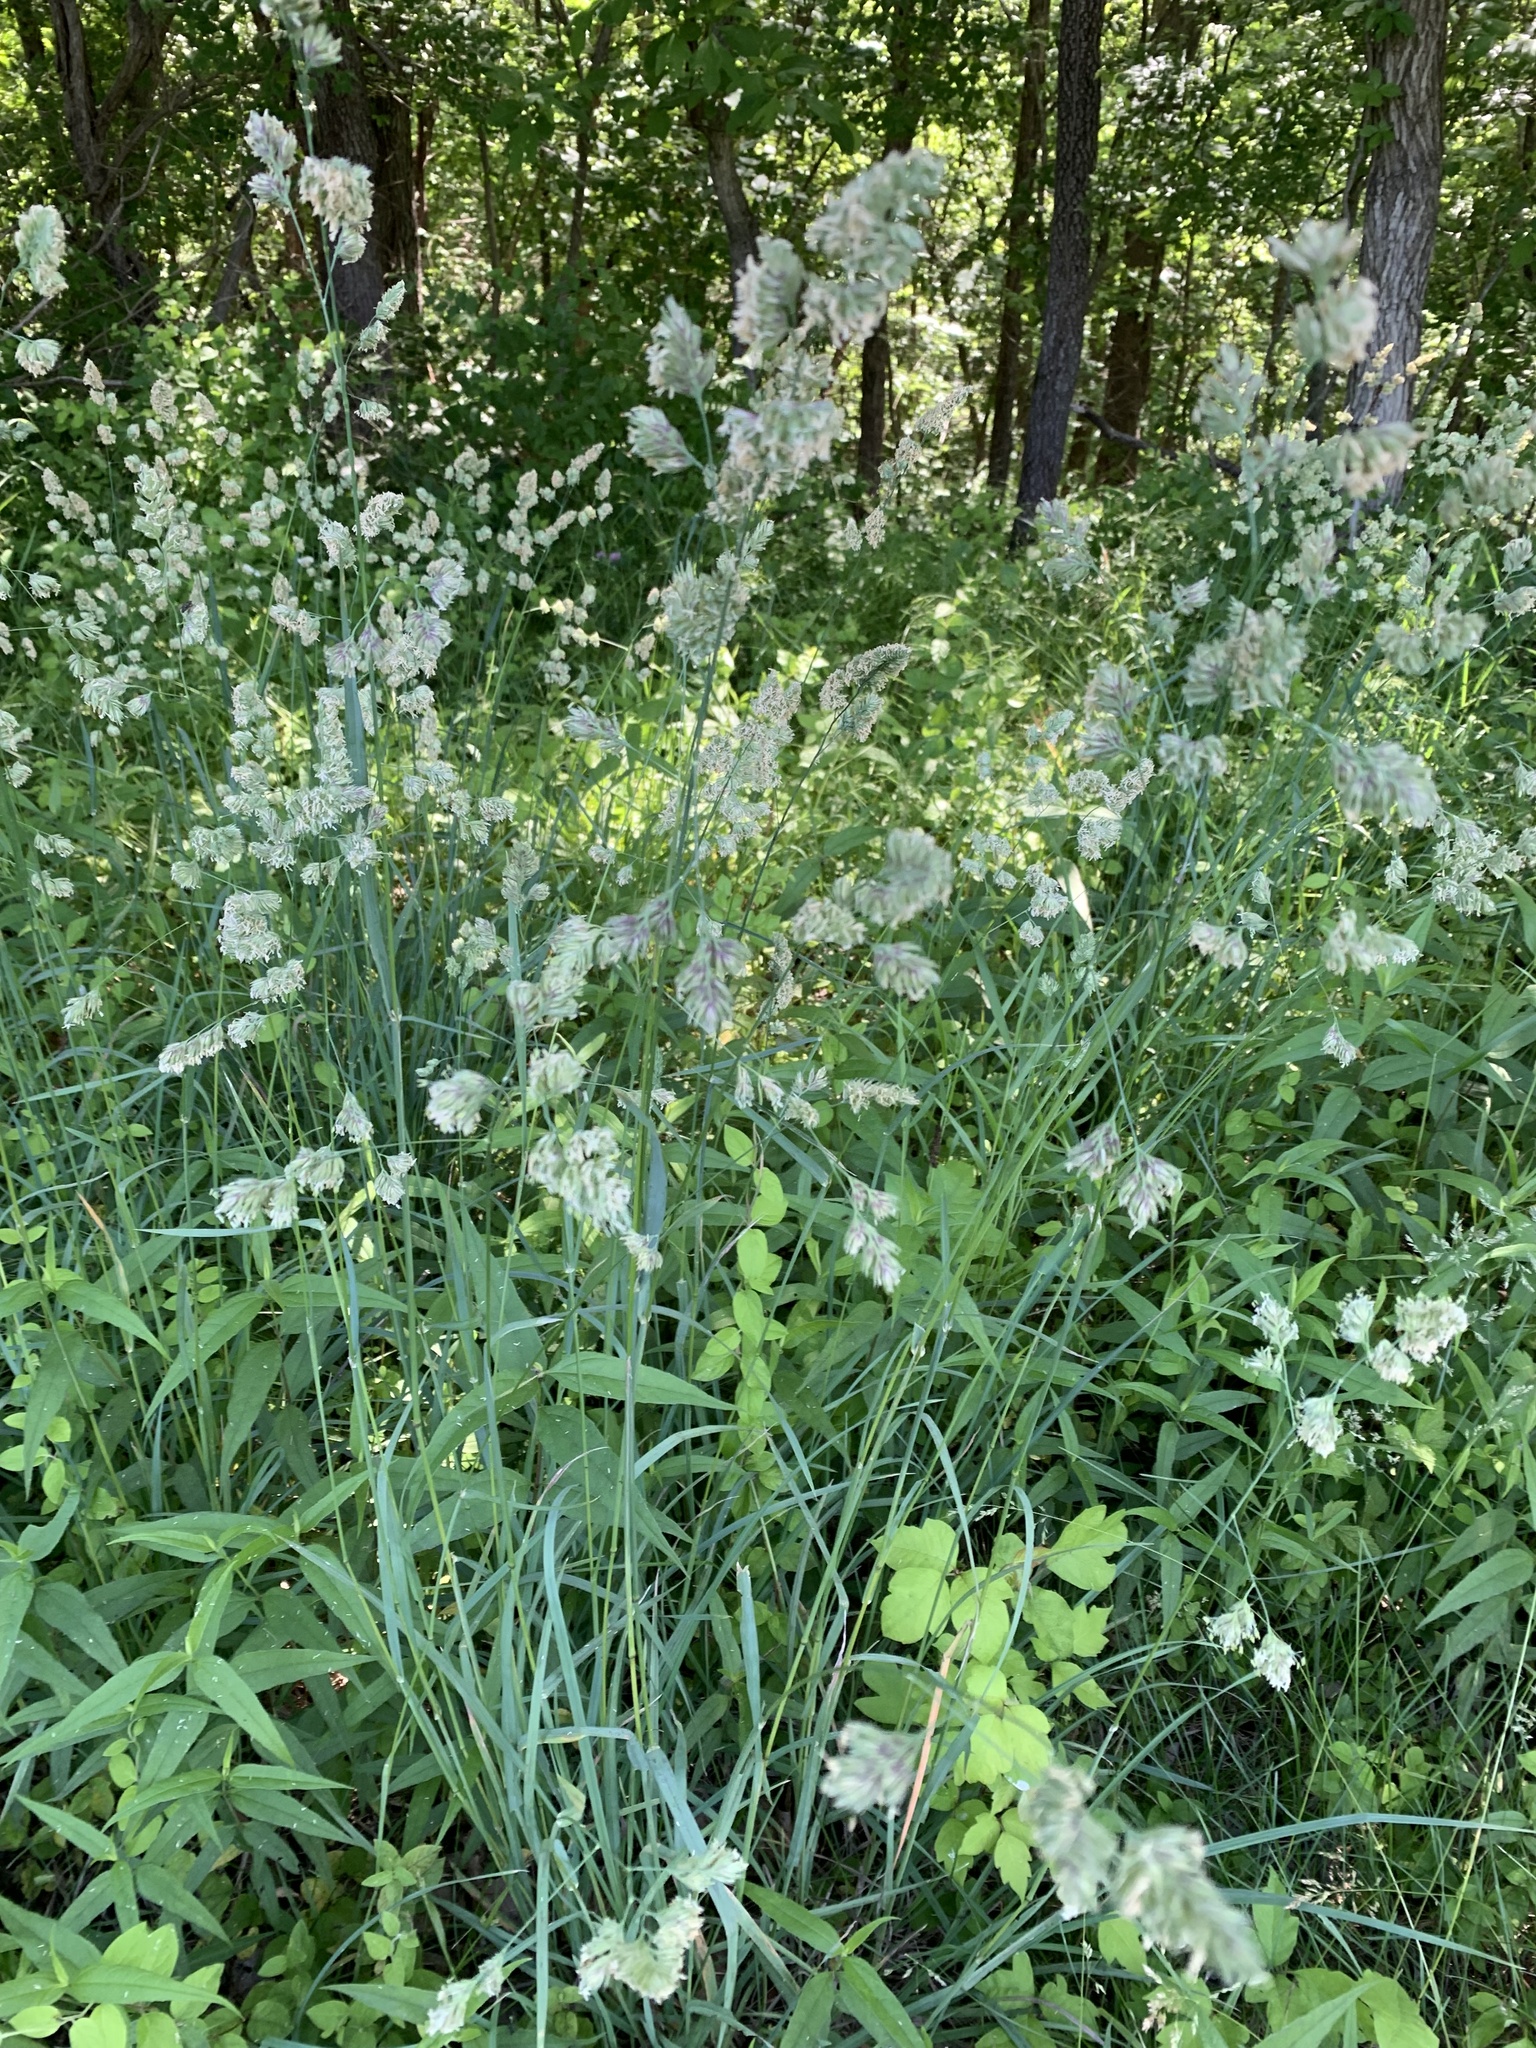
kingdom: Plantae
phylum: Tracheophyta
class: Liliopsida
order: Poales
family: Poaceae
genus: Dactylis
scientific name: Dactylis glomerata
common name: Orchardgrass
